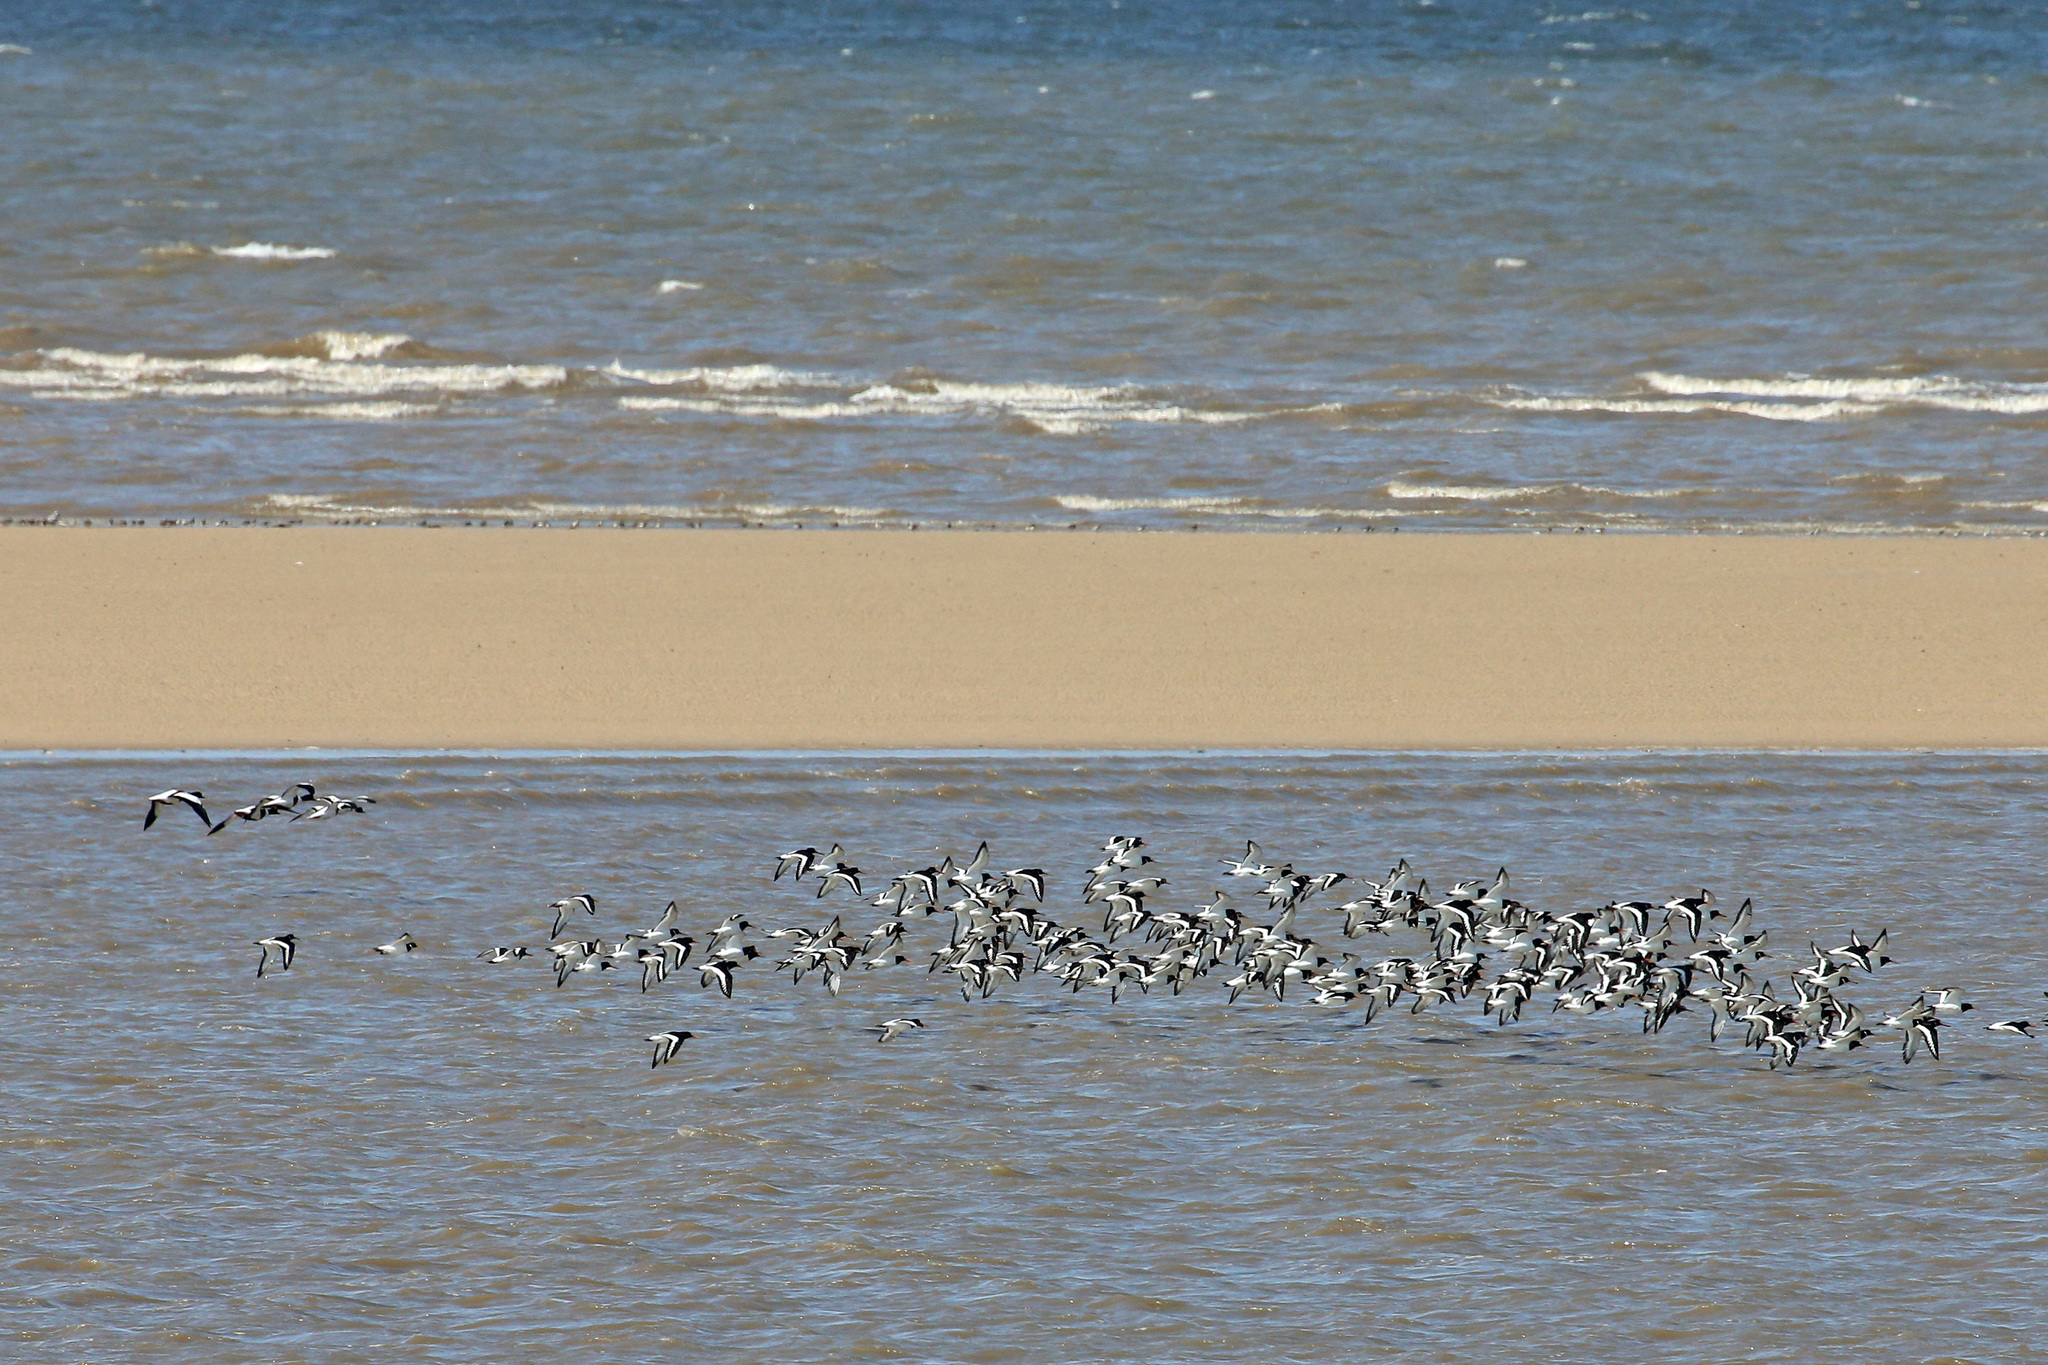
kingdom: Animalia
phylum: Chordata
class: Aves
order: Charadriiformes
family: Haematopodidae
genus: Haematopus
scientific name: Haematopus ostralegus
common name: Eurasian oystercatcher
